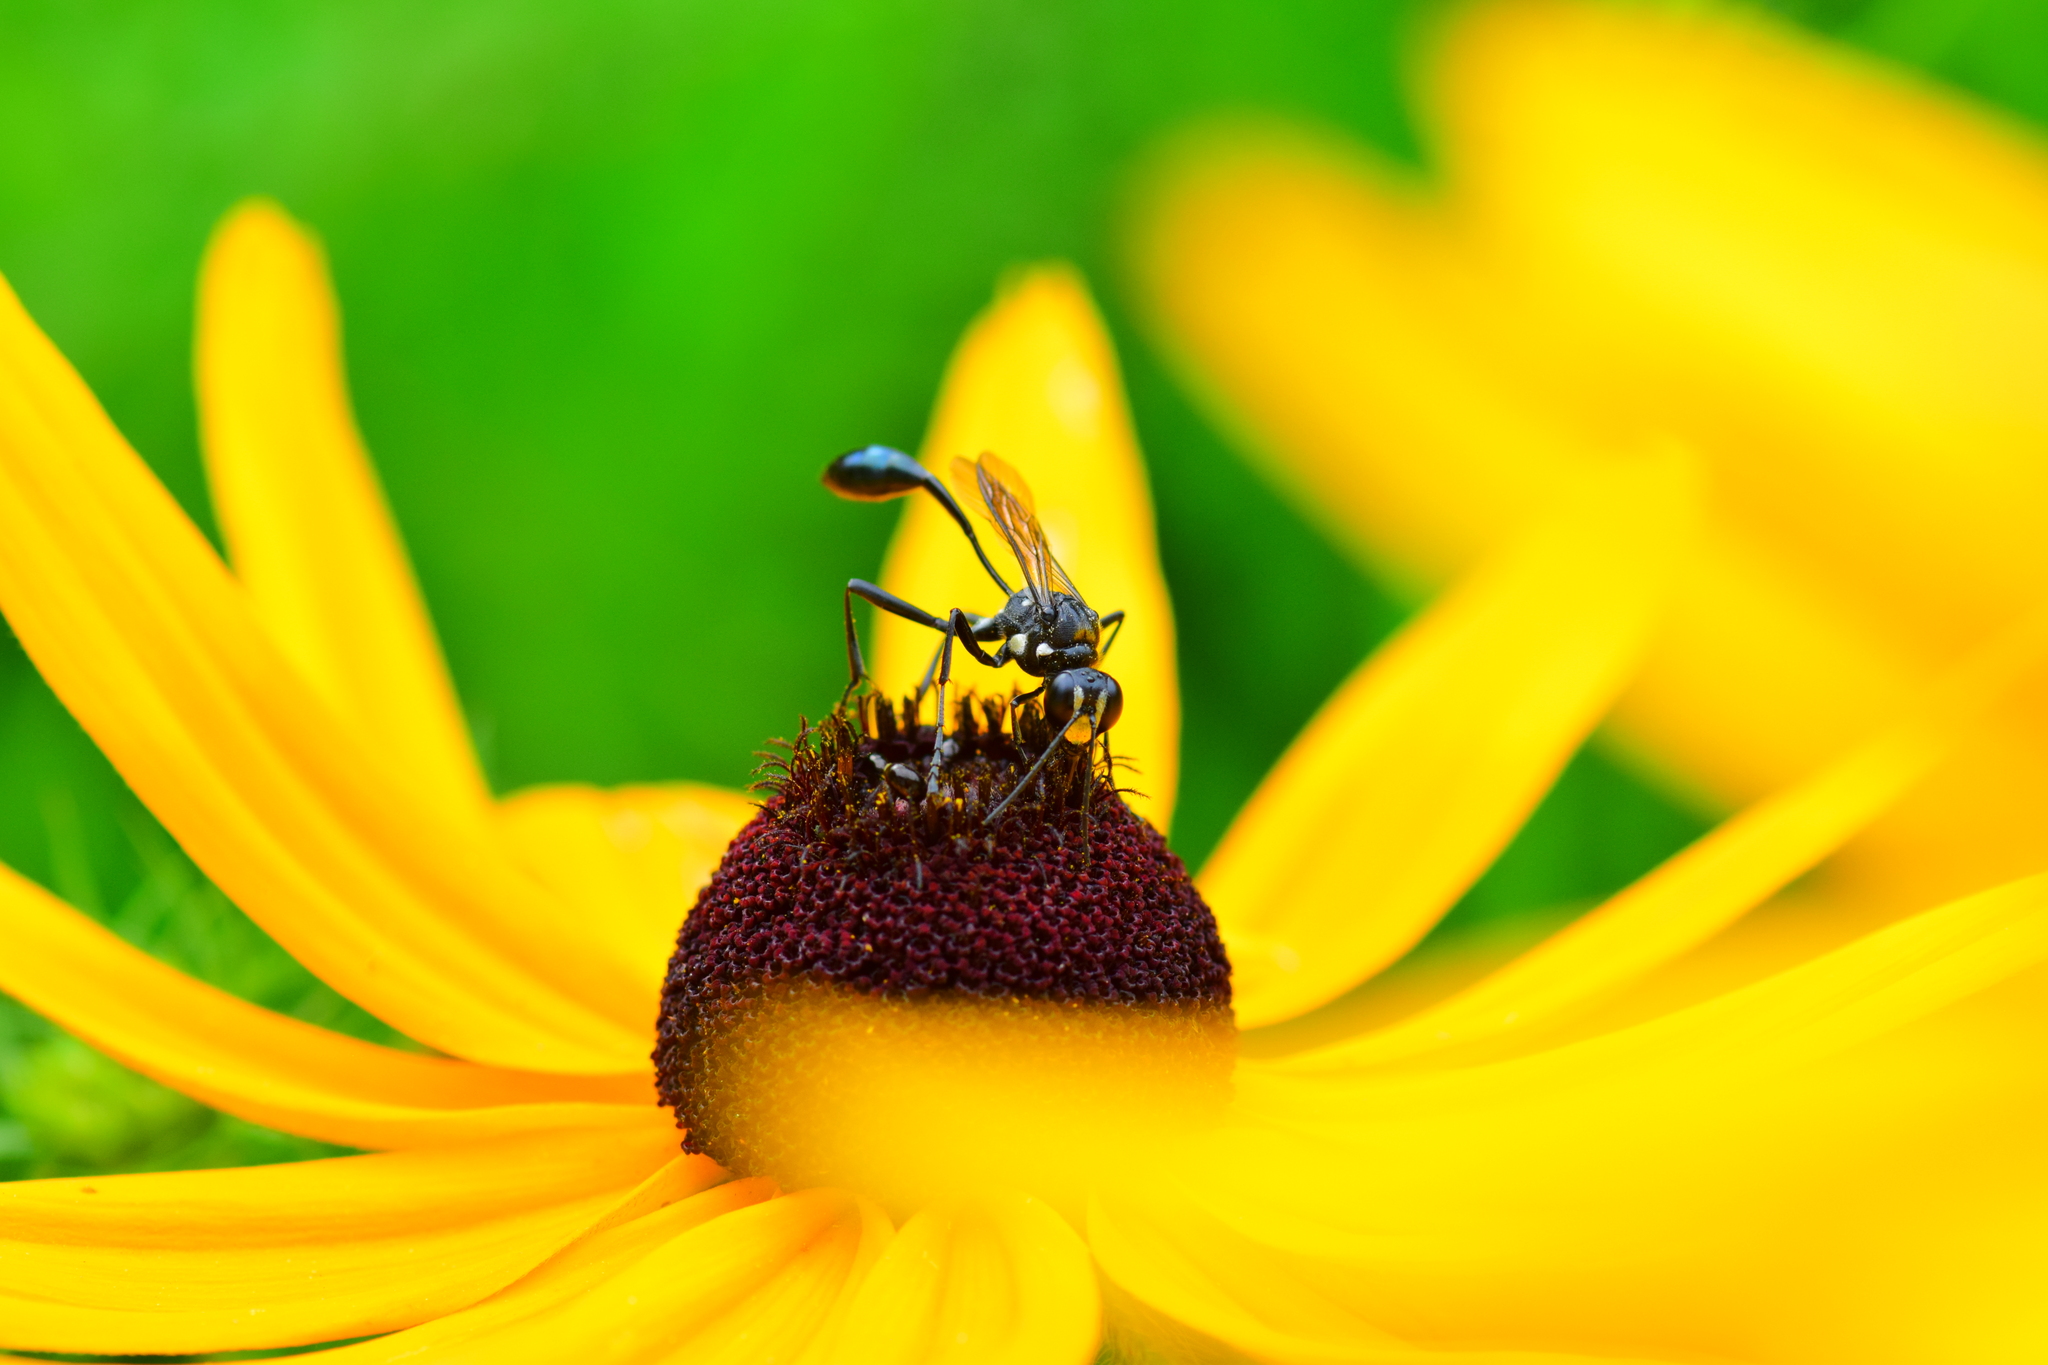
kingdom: Animalia
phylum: Arthropoda
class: Insecta
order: Hymenoptera
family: Sphecidae
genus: Eremnophila
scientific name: Eremnophila aureonotata
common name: Gold-marked thread-waisted wasp
